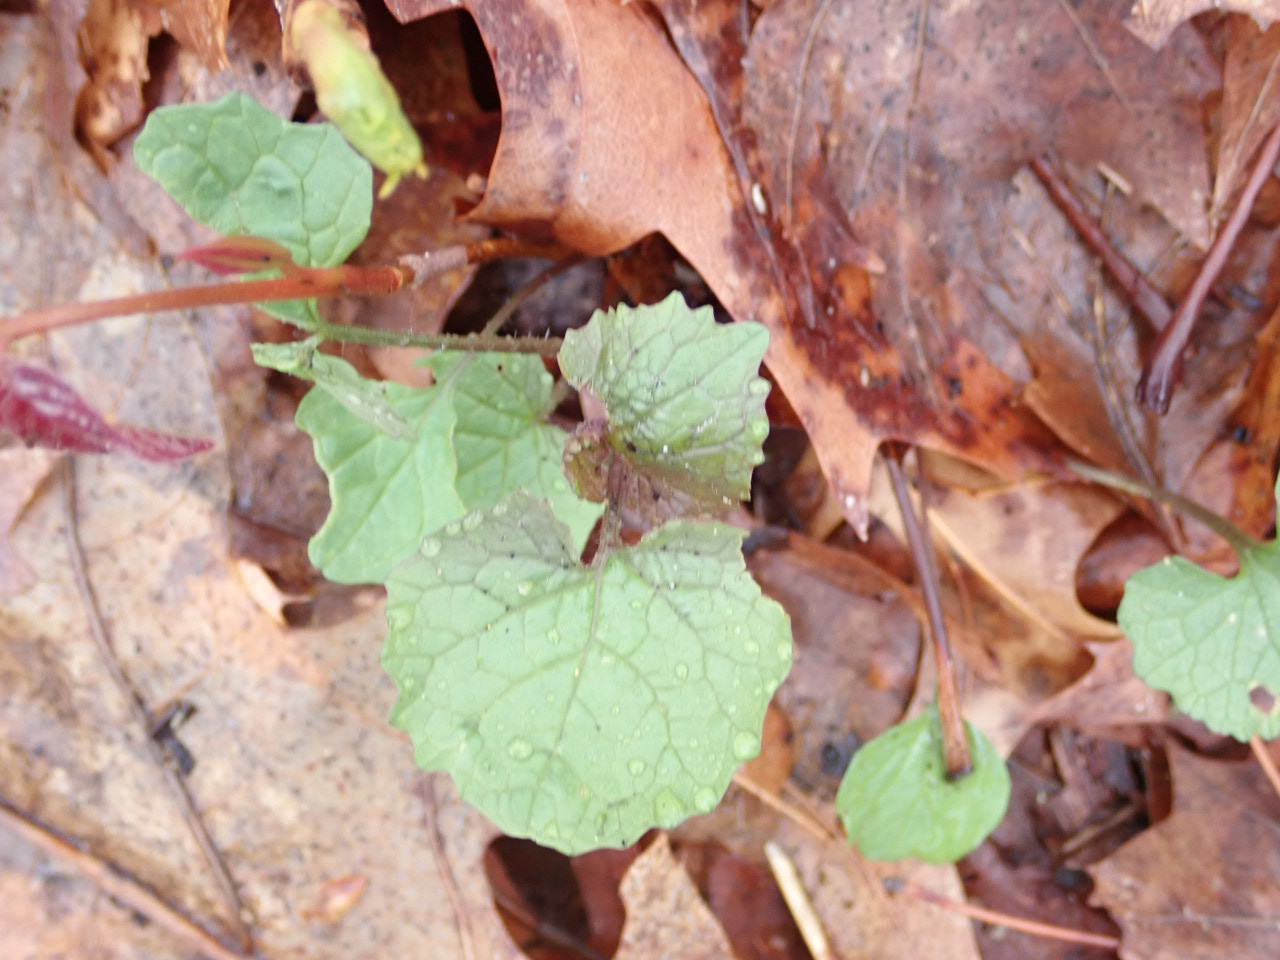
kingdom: Plantae
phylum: Tracheophyta
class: Magnoliopsida
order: Brassicales
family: Brassicaceae
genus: Alliaria
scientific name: Alliaria petiolata
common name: Garlic mustard
